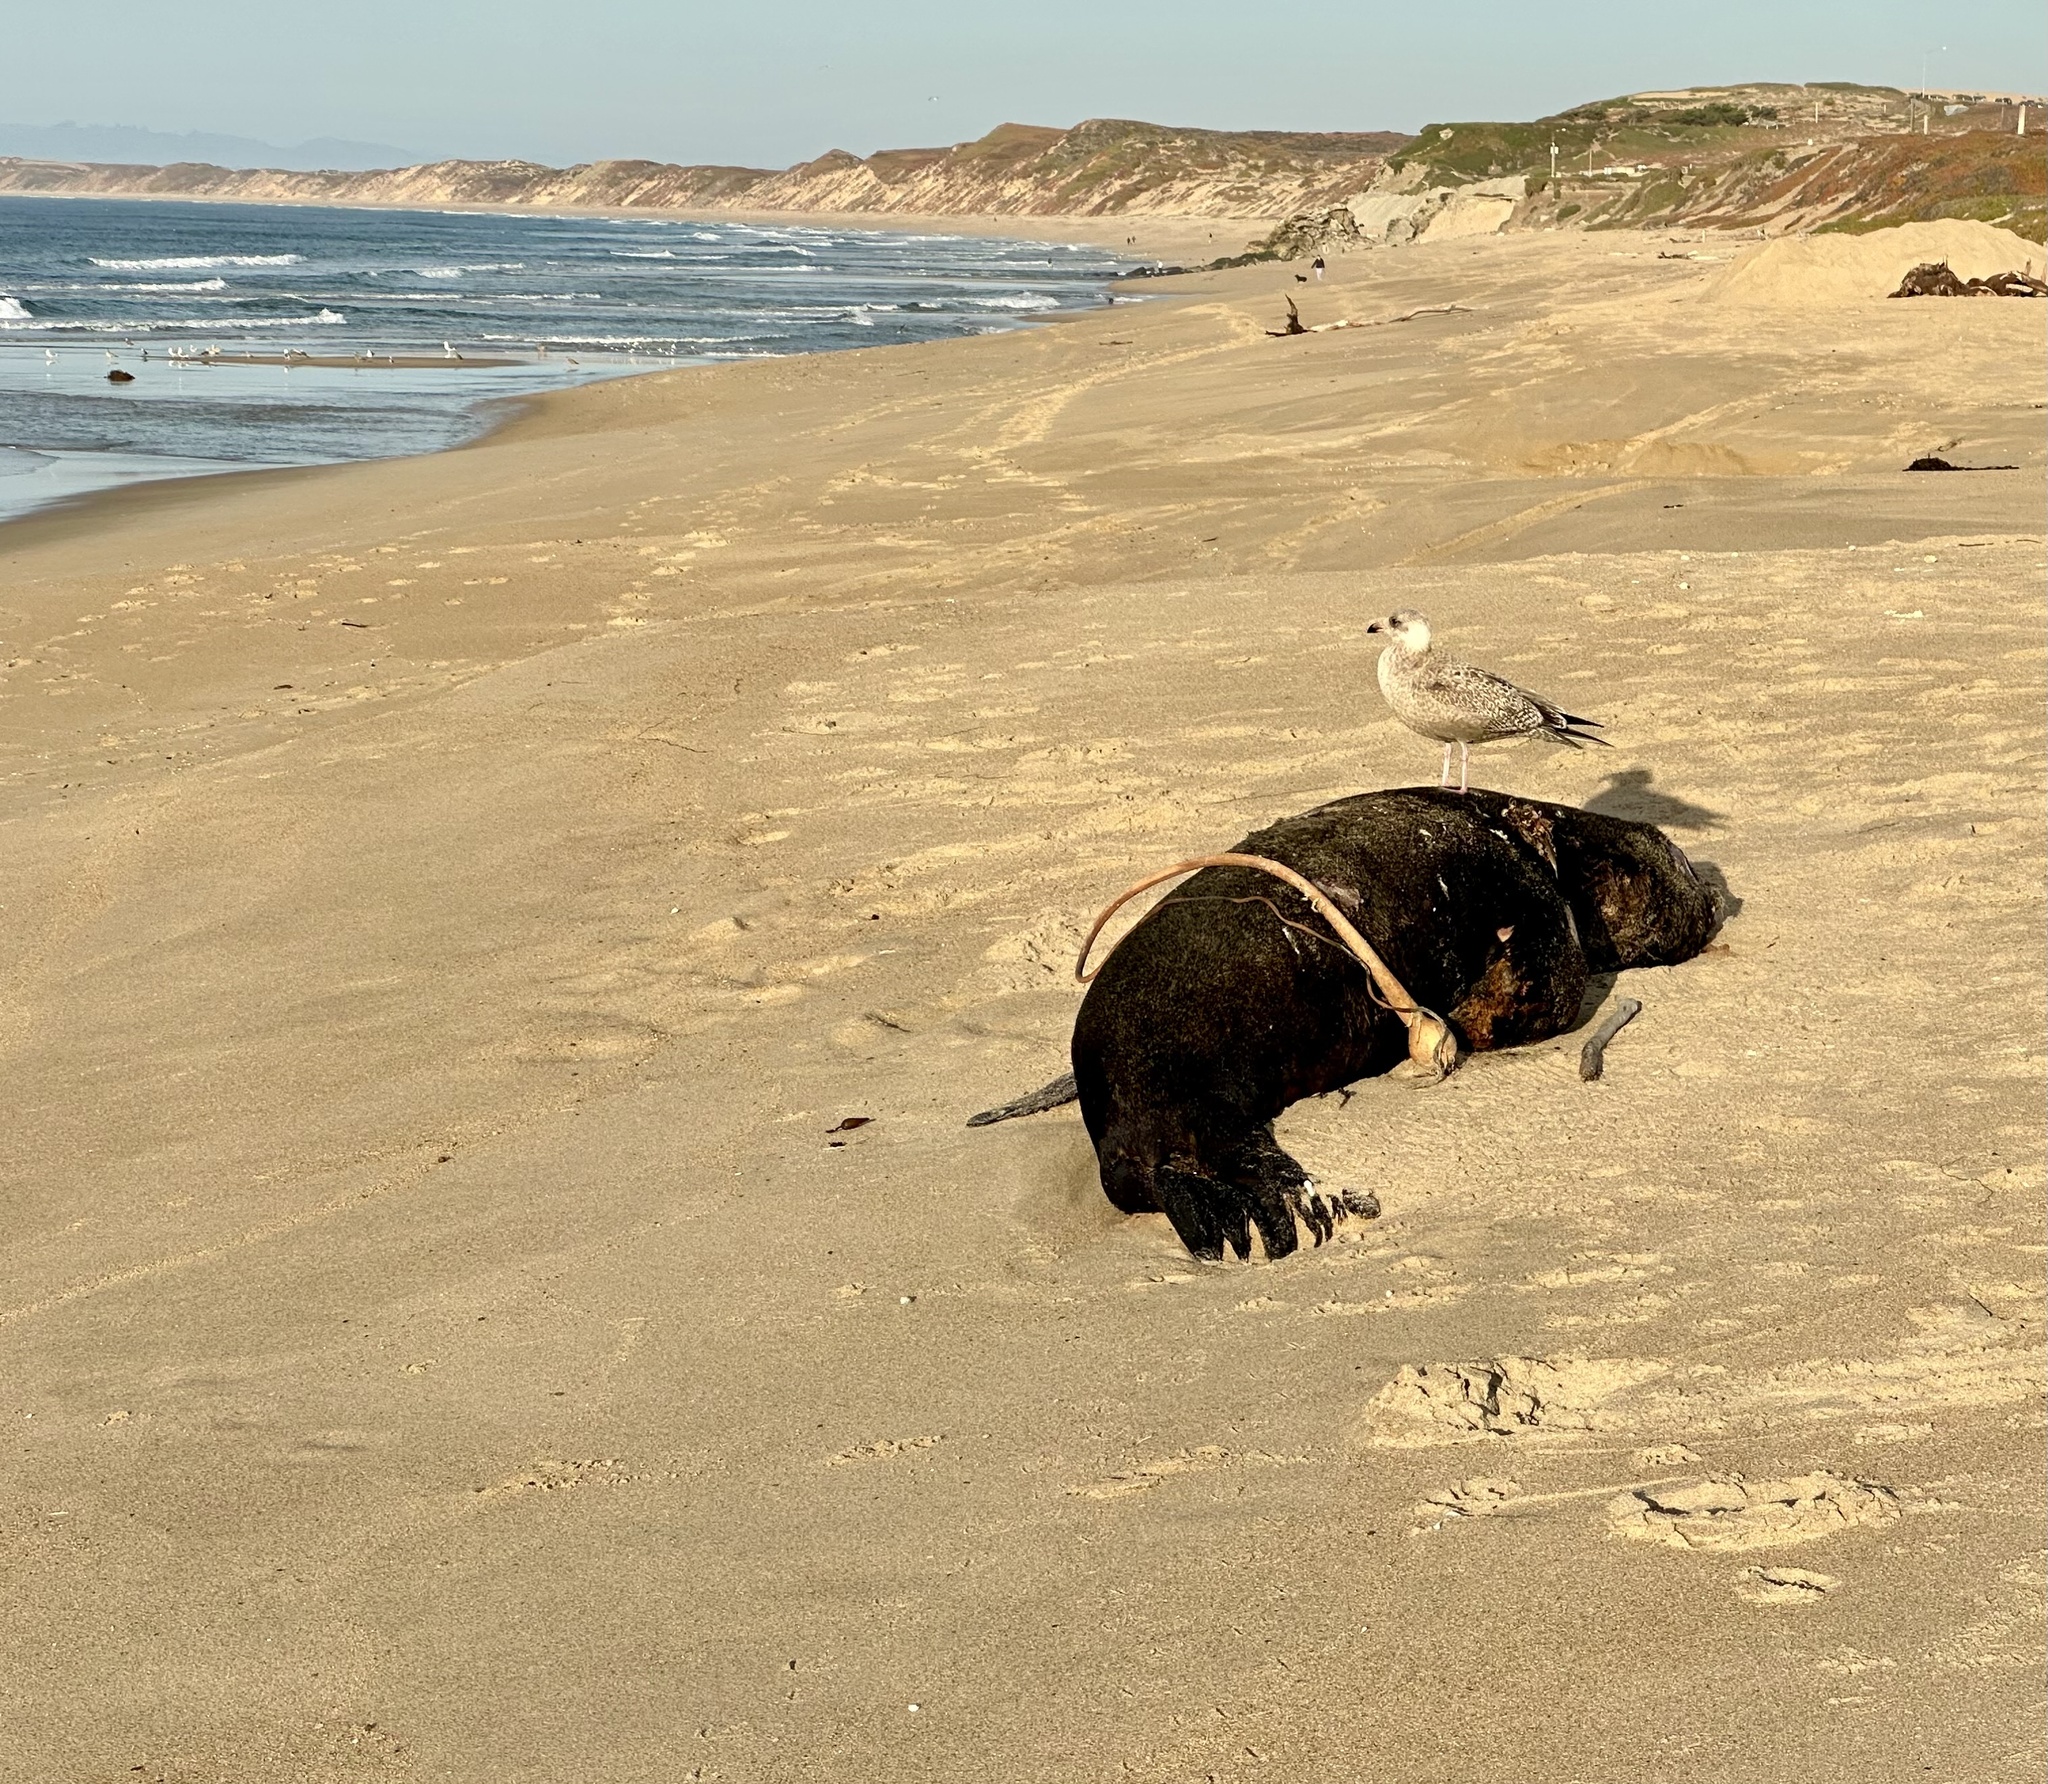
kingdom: Animalia
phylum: Chordata
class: Mammalia
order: Carnivora
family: Otariidae
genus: Zalophus
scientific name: Zalophus californianus
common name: California sea lion
